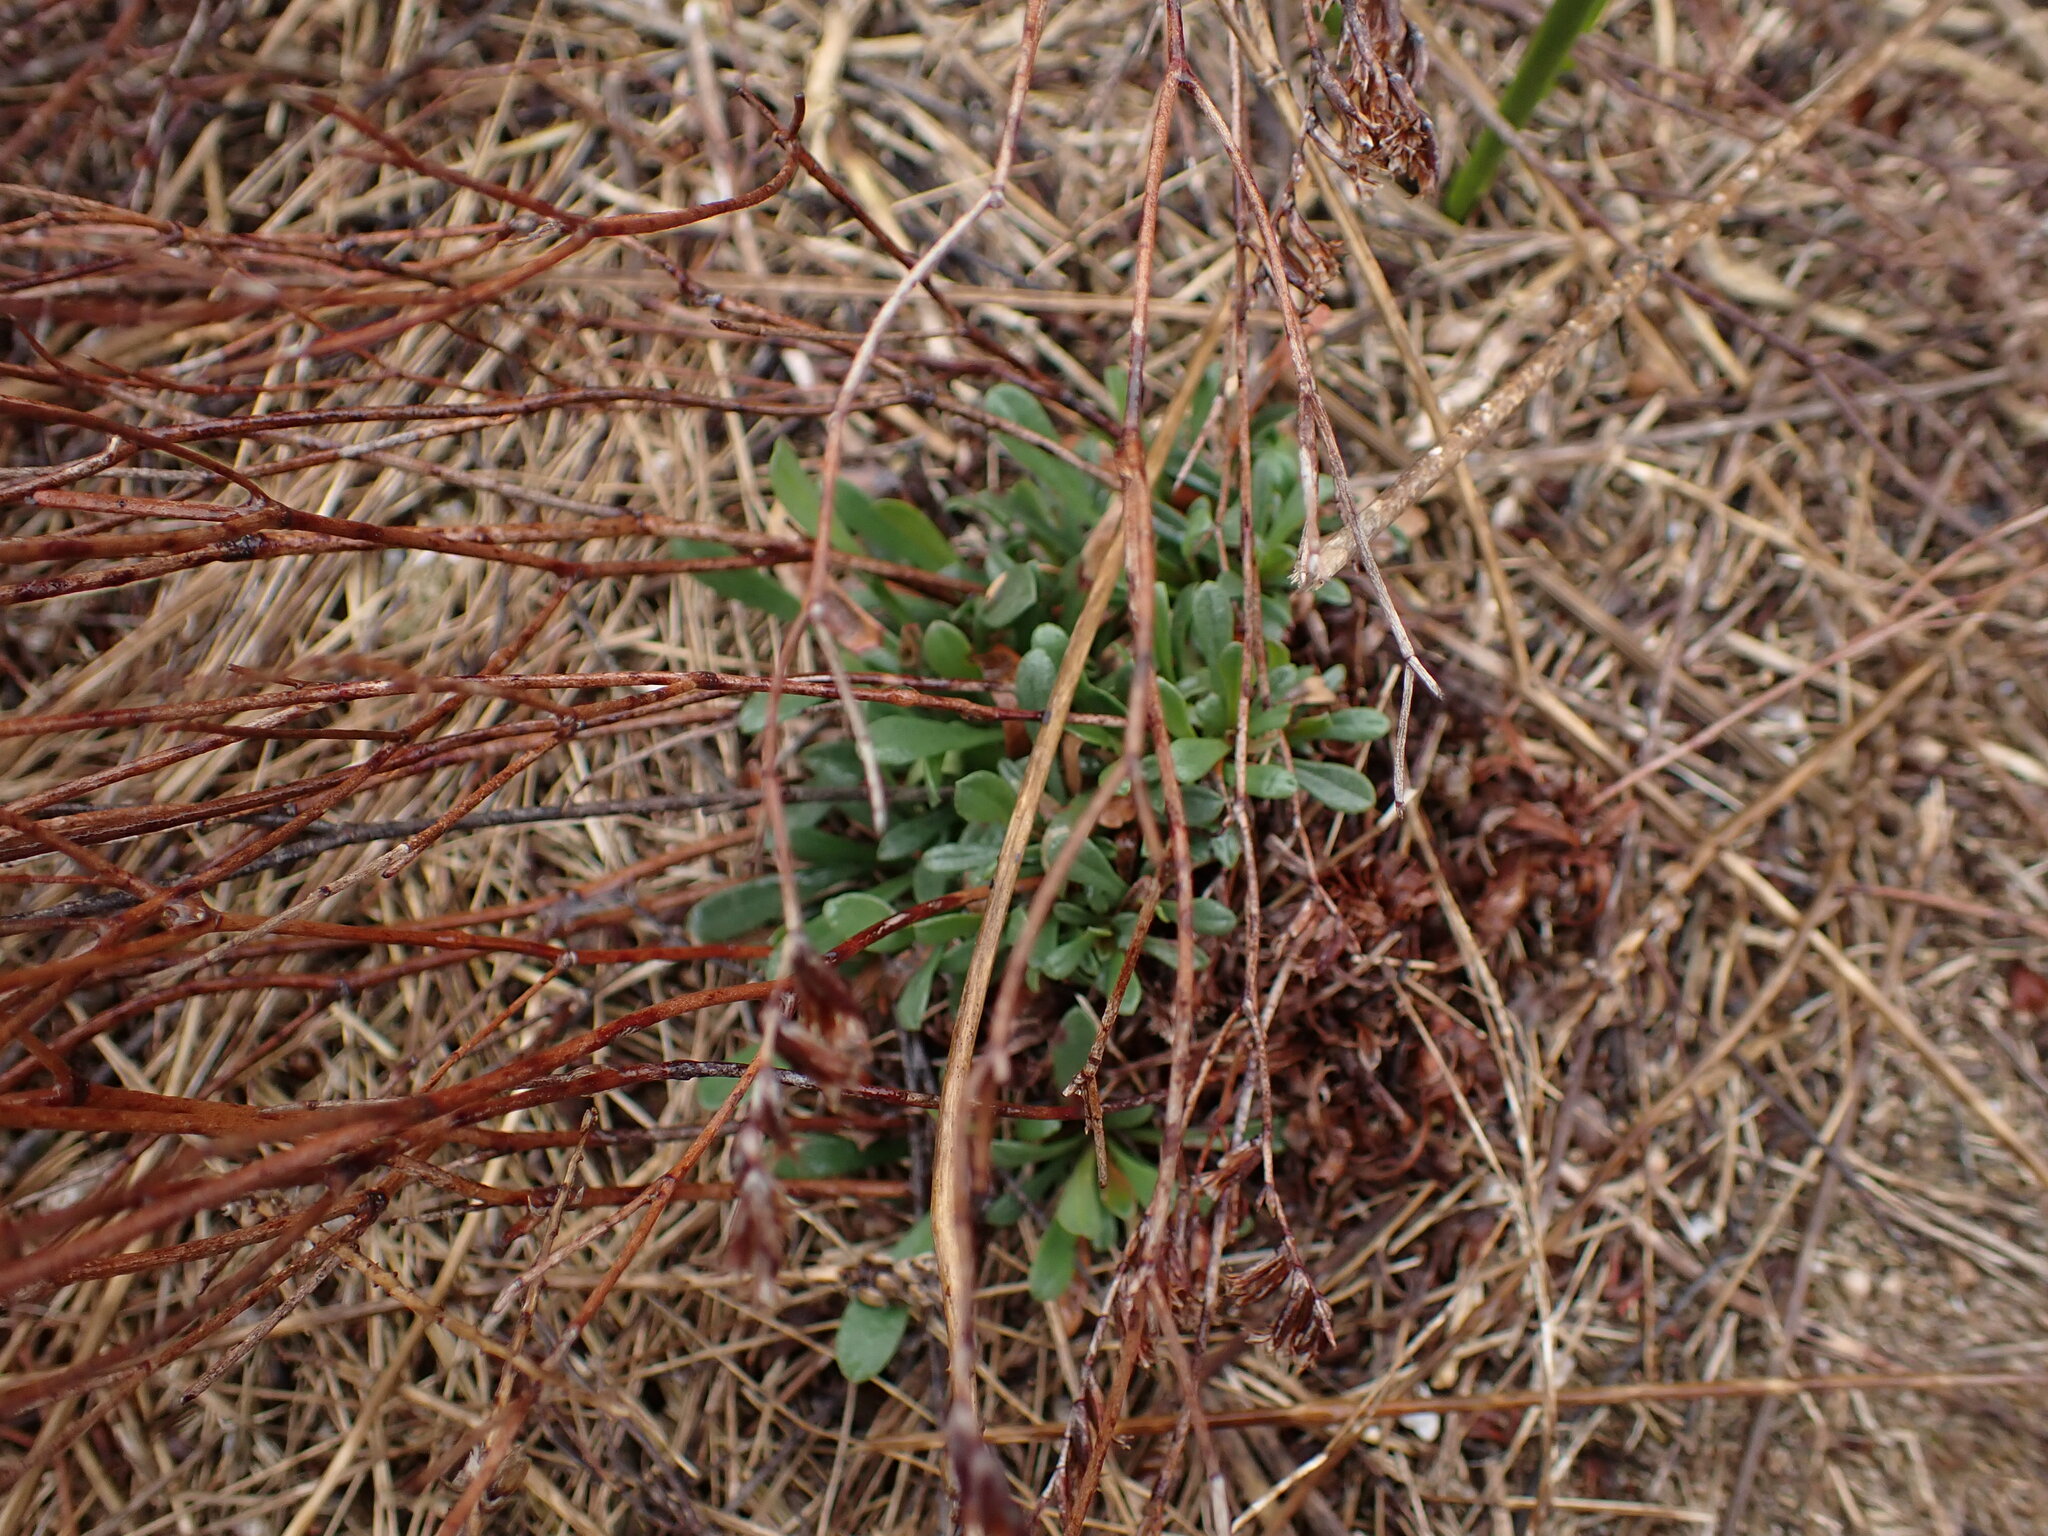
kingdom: Plantae
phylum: Tracheophyta
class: Magnoliopsida
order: Caryophyllales
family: Plumbaginaceae
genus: Limonium
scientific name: Limonium virgatum
